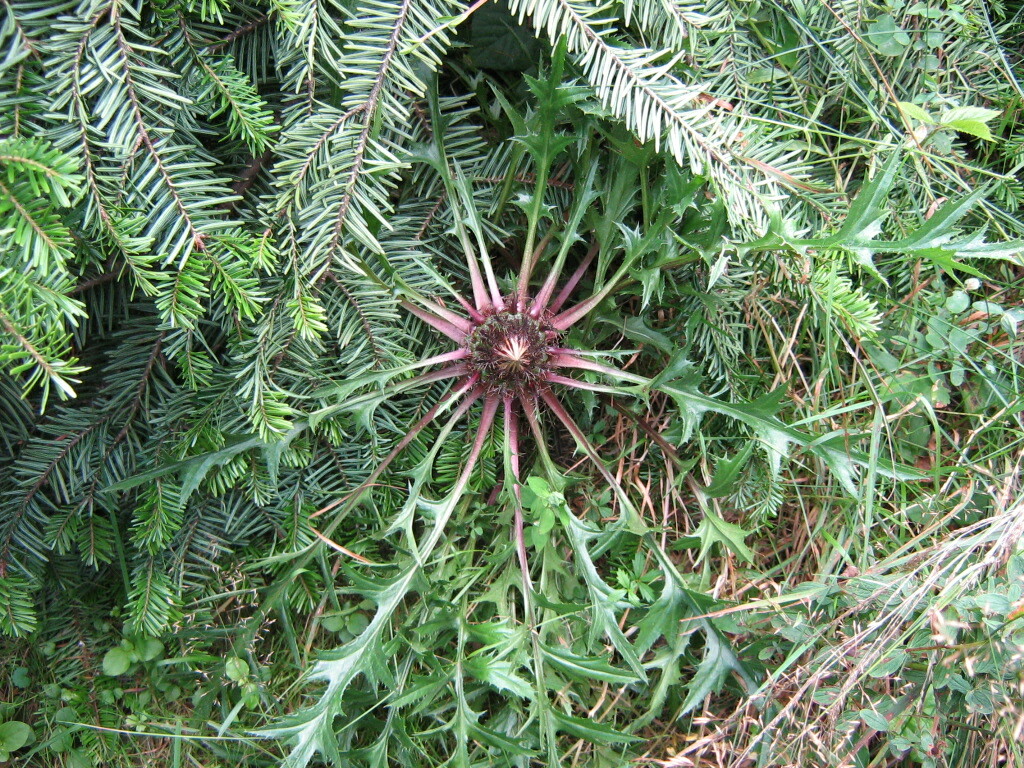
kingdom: Plantae
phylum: Tracheophyta
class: Magnoliopsida
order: Asterales
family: Asteraceae
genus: Carlina
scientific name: Carlina acaulis
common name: Stemless carline thistle
